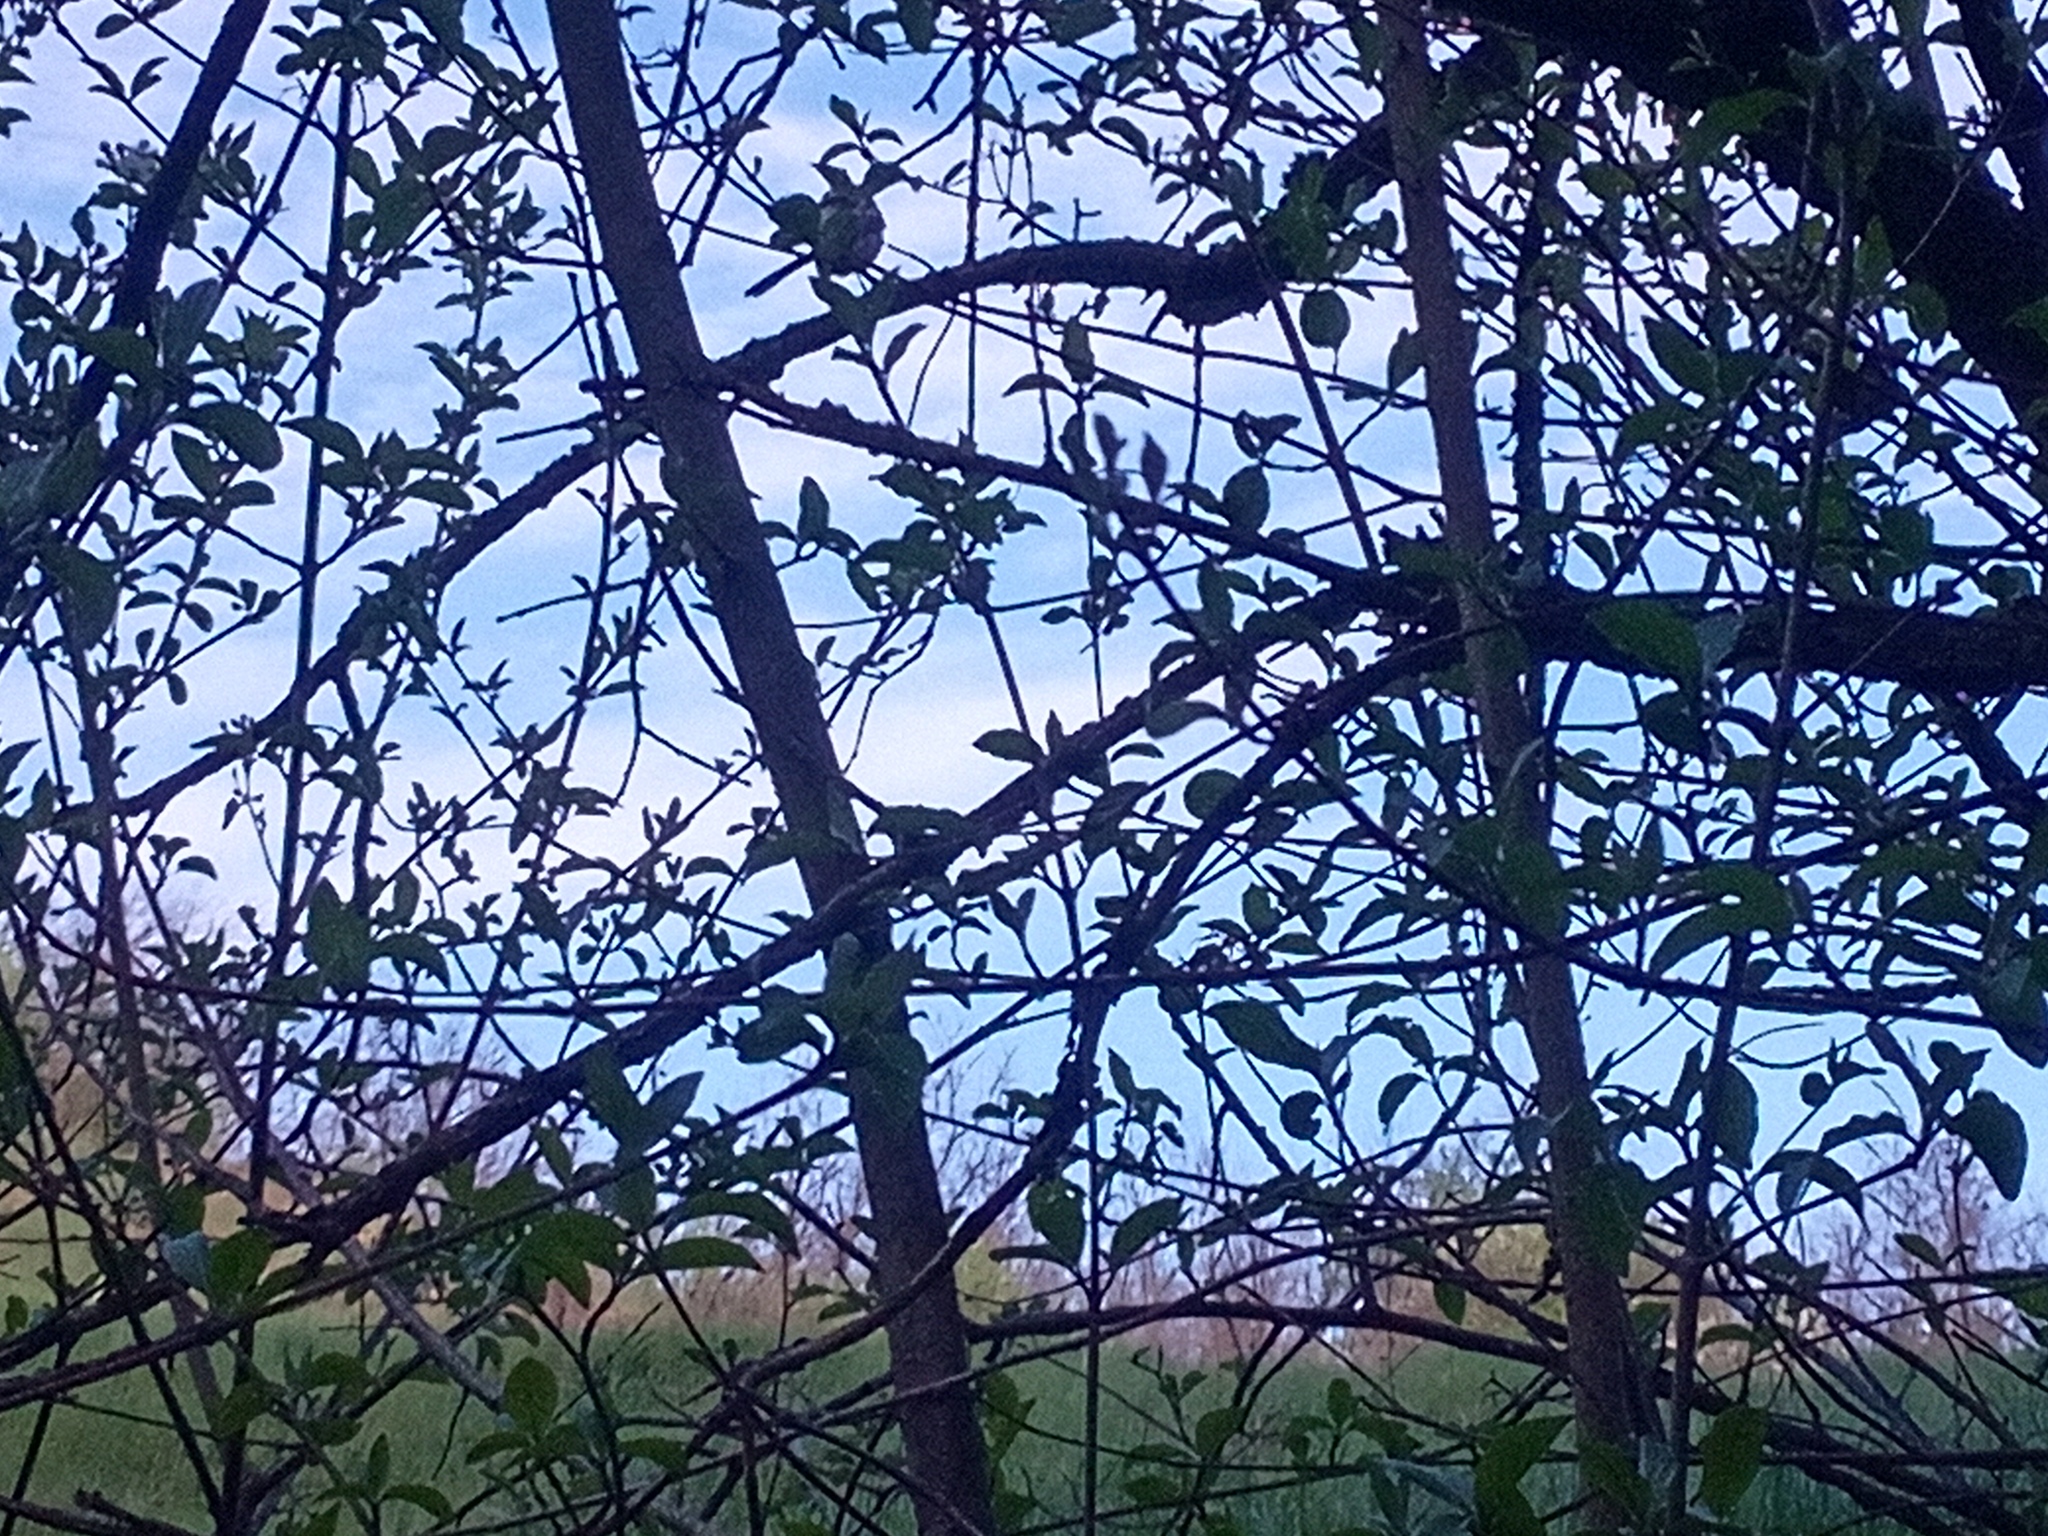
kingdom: Animalia
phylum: Chordata
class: Aves
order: Passeriformes
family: Aegithalidae
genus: Aegithalos
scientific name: Aegithalos caudatus
